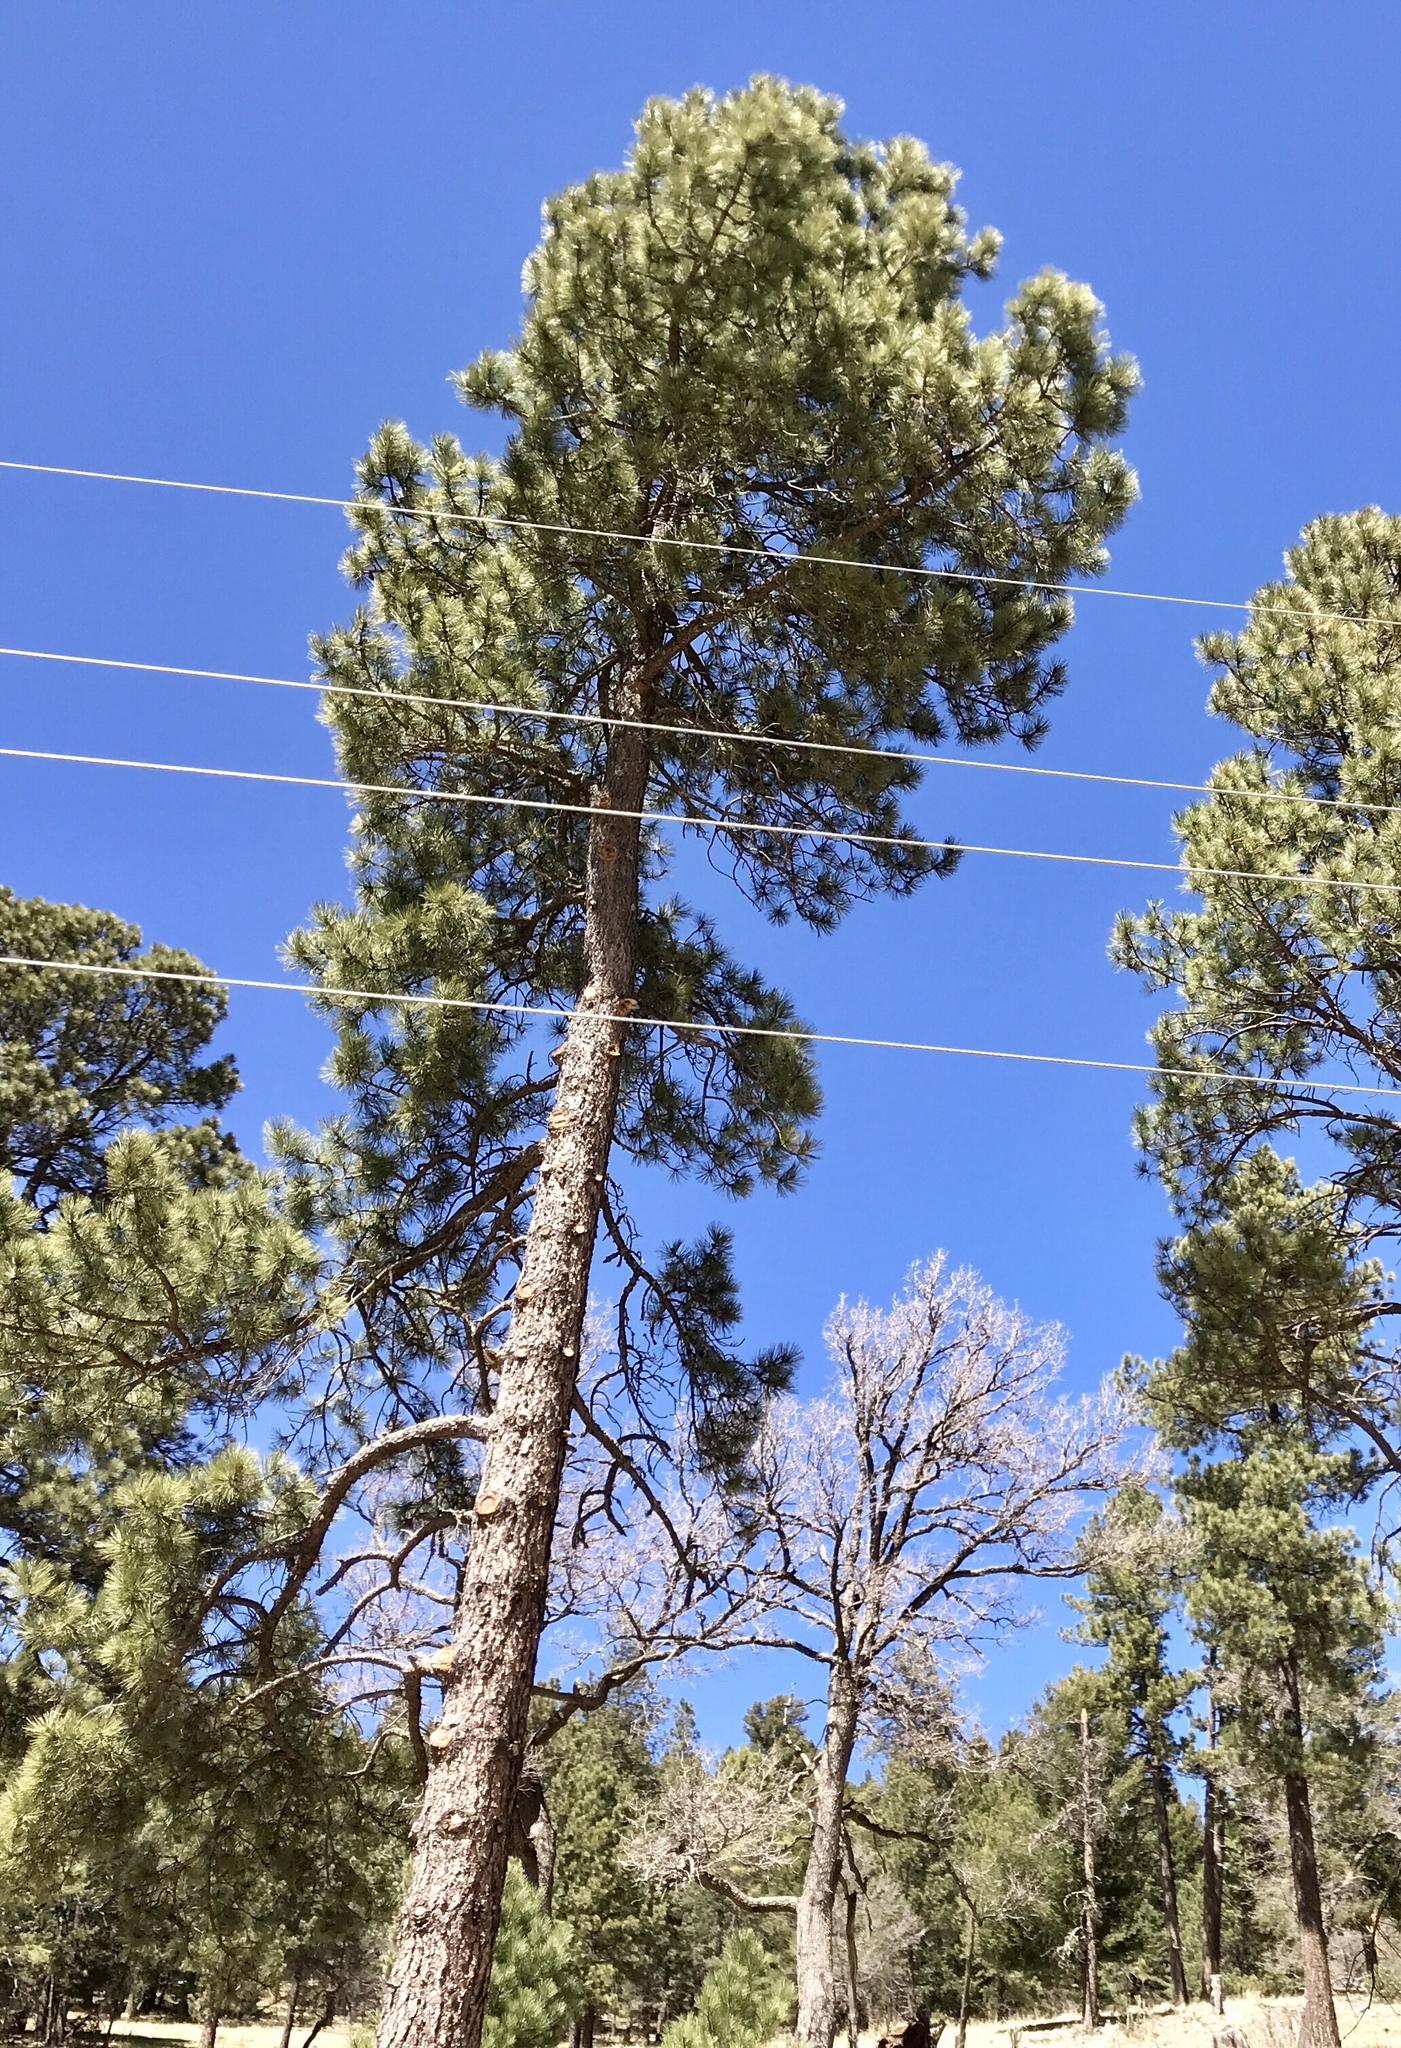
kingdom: Plantae
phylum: Tracheophyta
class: Pinopsida
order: Pinales
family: Pinaceae
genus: Pinus
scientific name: Pinus ponderosa
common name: Western yellow-pine
